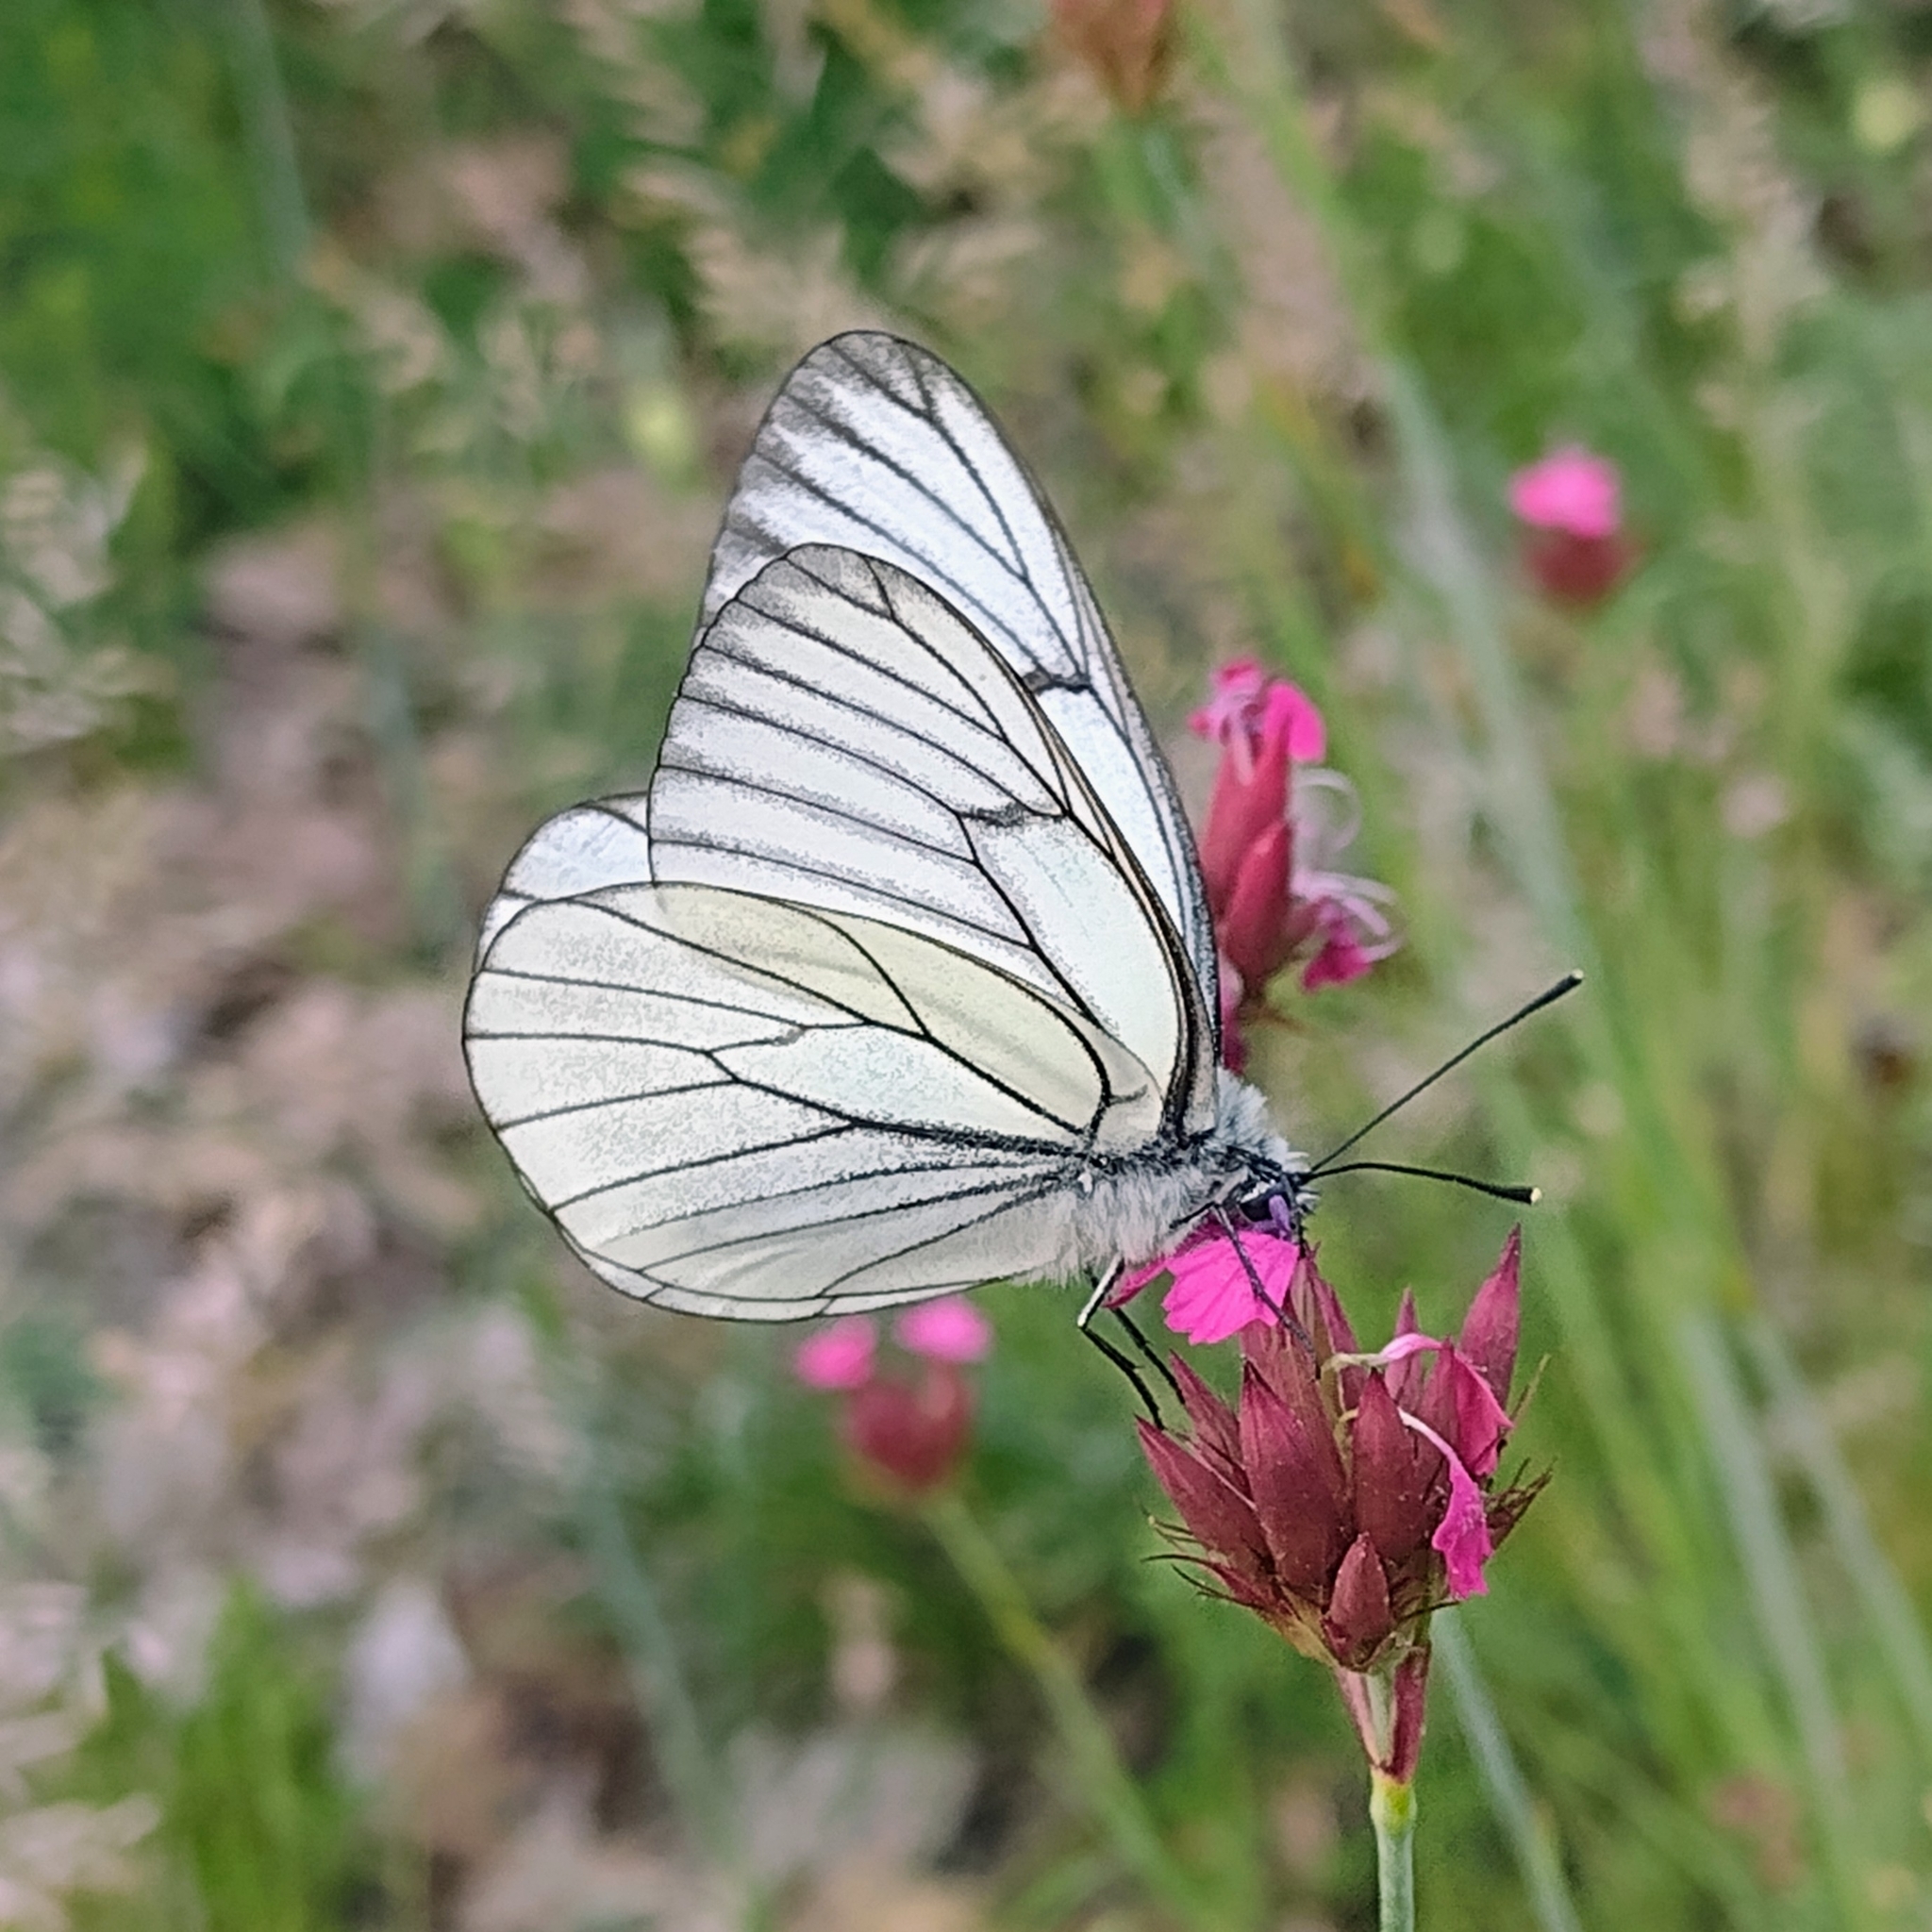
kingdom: Animalia
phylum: Arthropoda
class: Insecta
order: Lepidoptera
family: Pieridae
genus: Aporia
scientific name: Aporia crataegi
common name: Black-veined white
